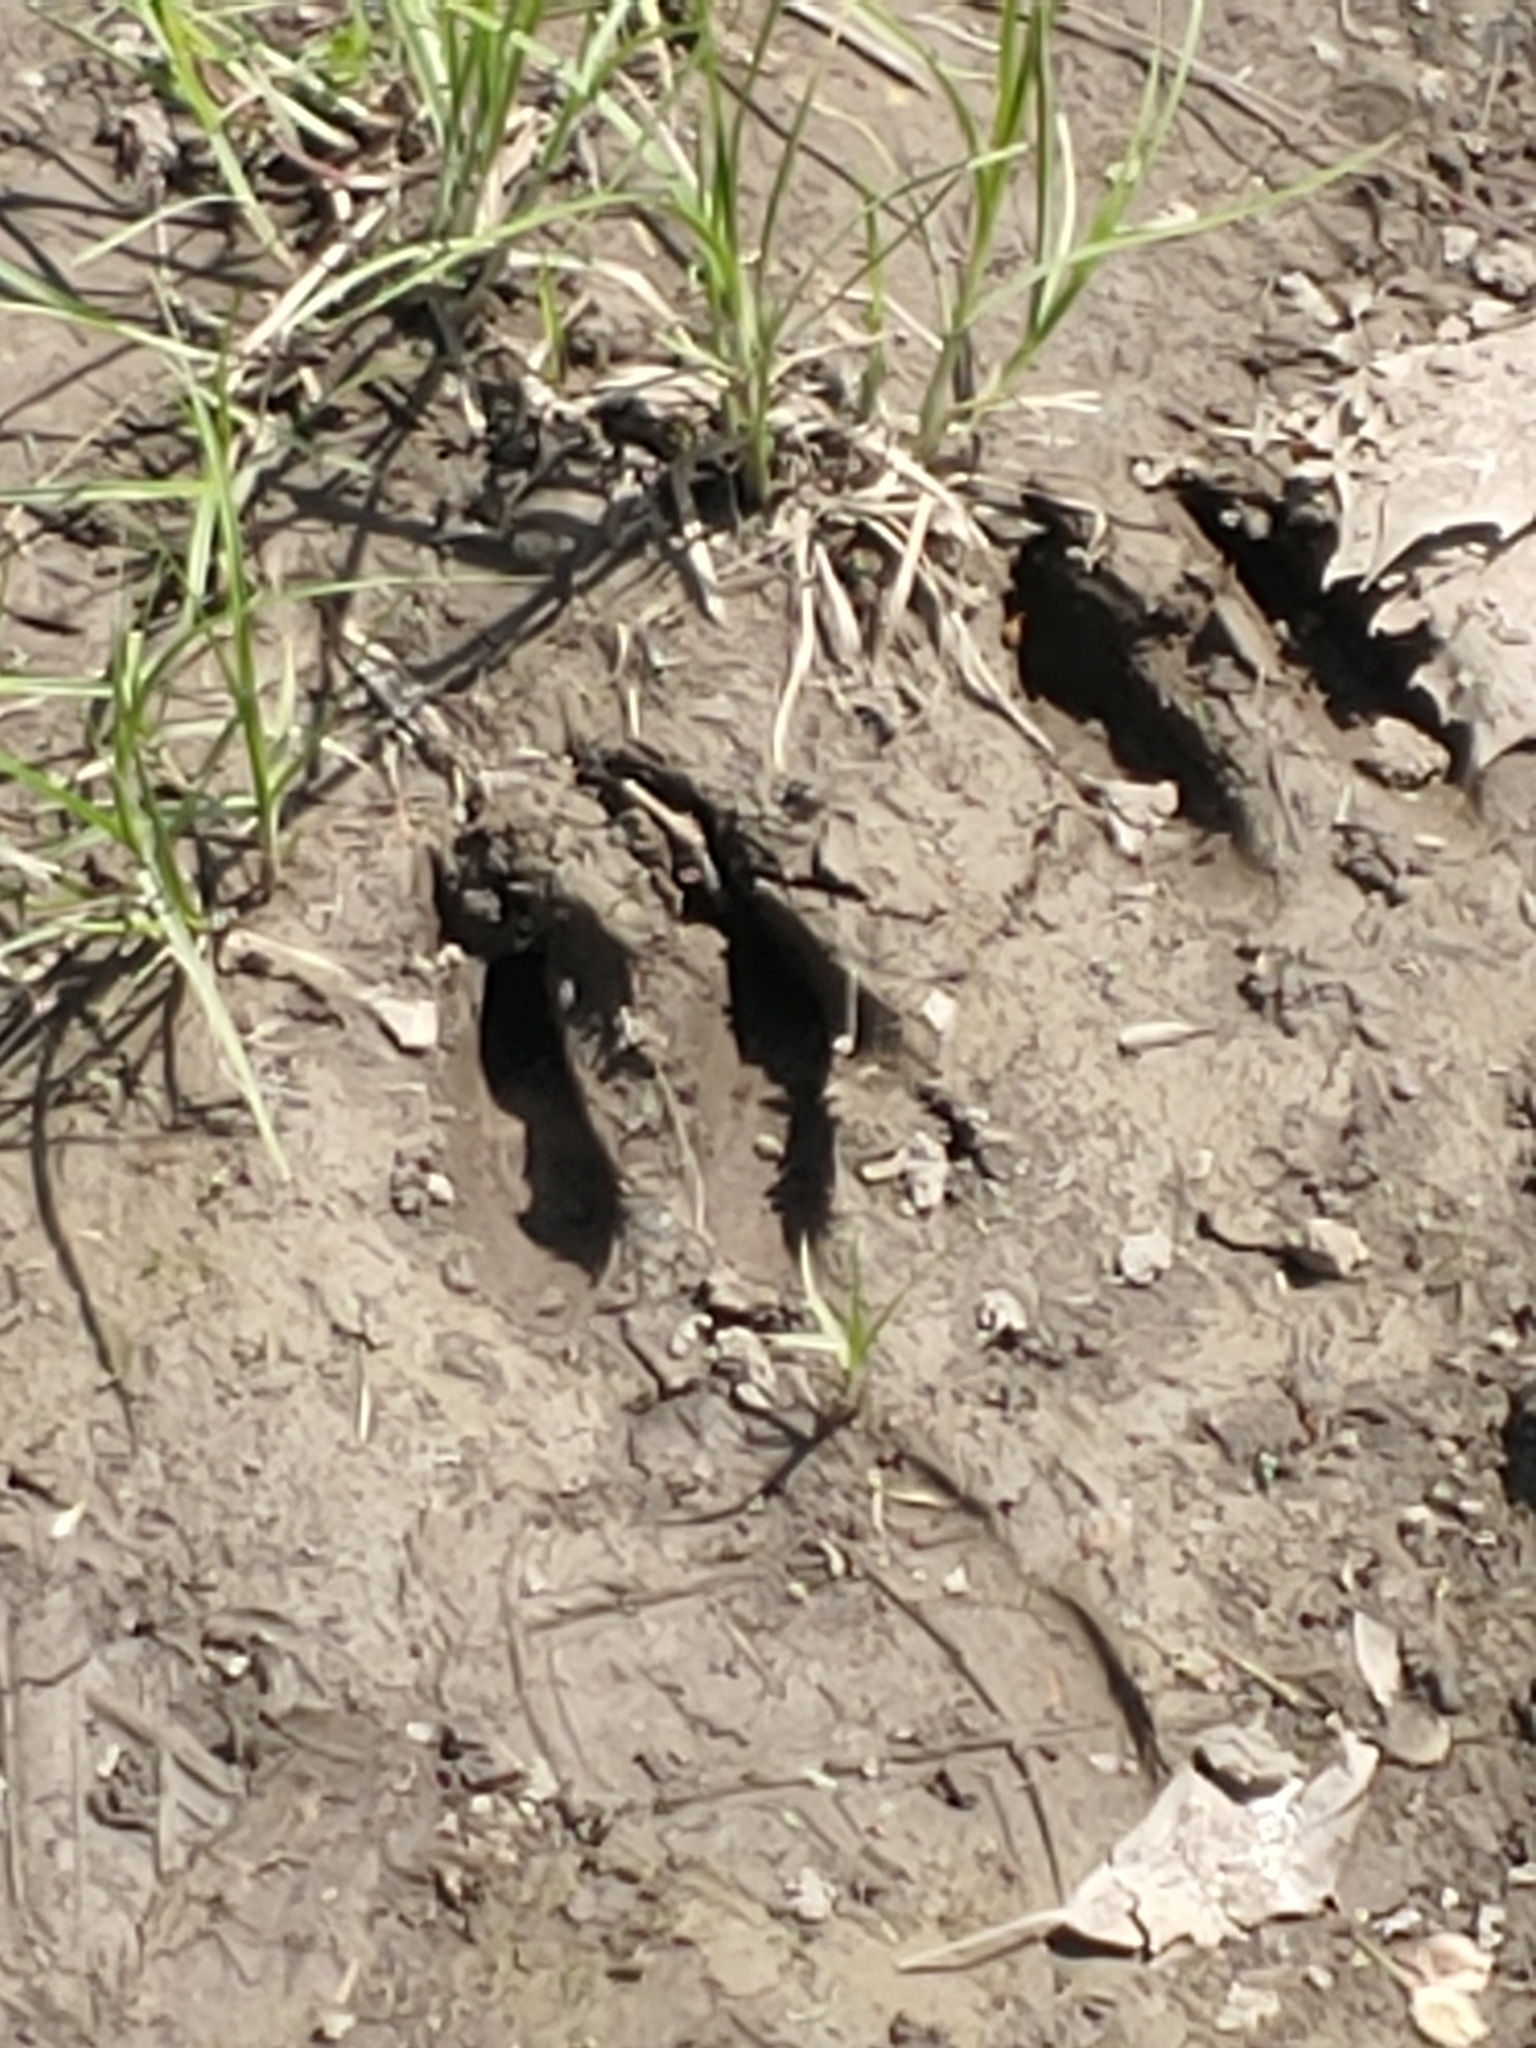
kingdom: Animalia
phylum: Chordata
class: Mammalia
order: Artiodactyla
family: Cervidae
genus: Odocoileus
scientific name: Odocoileus virginianus
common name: White-tailed deer
